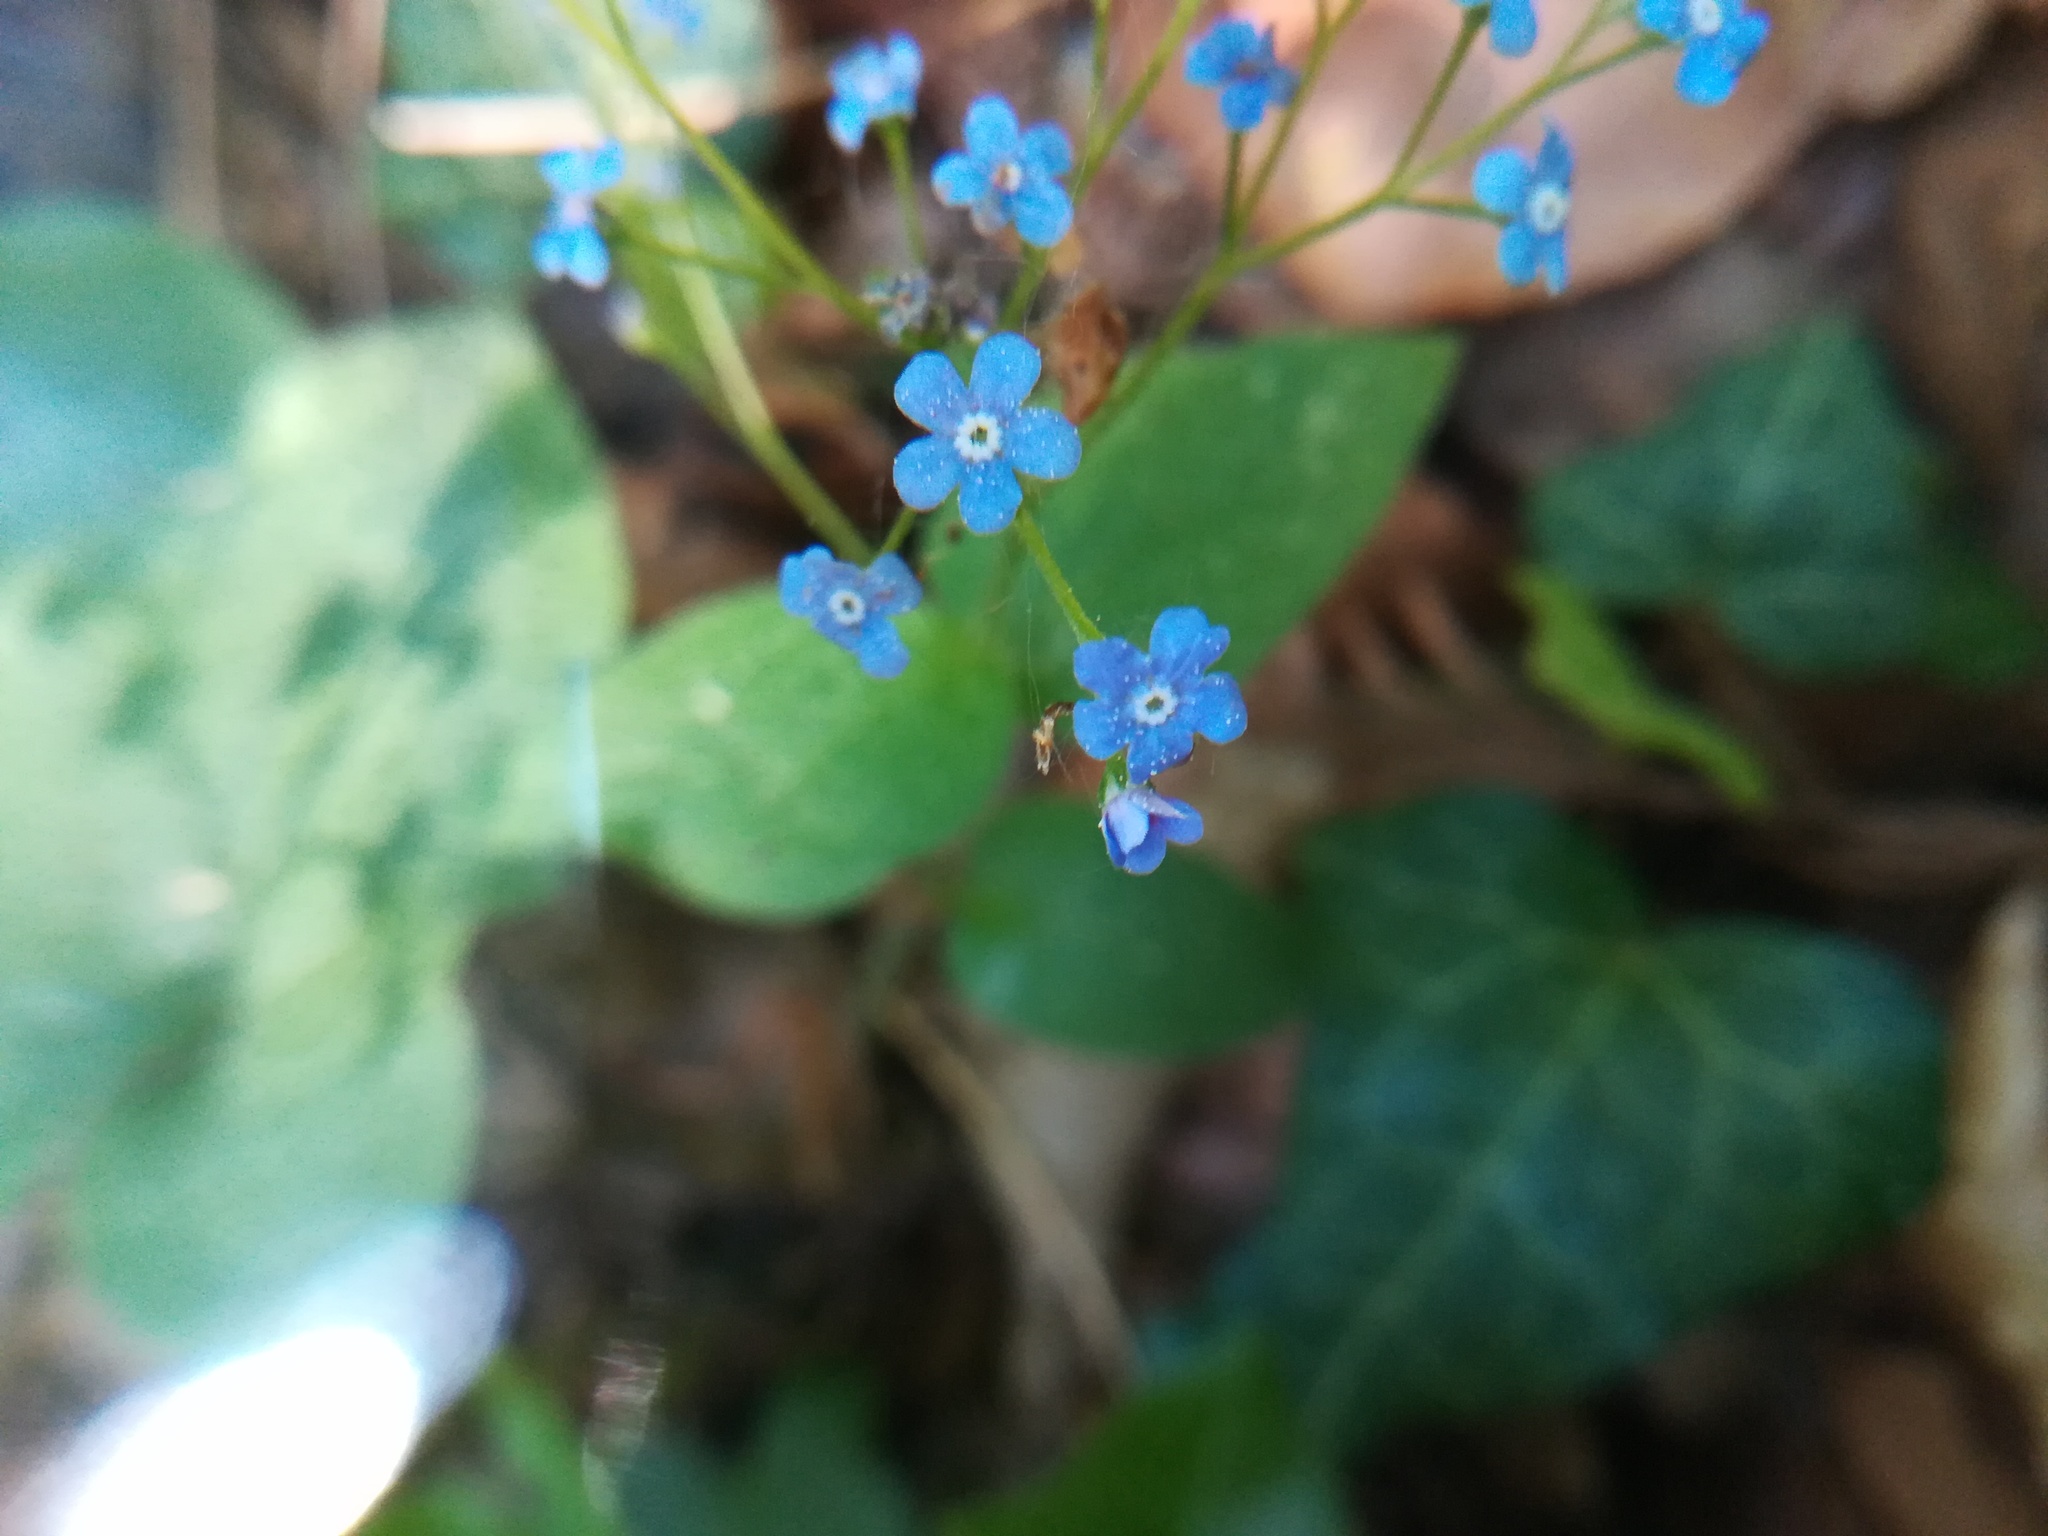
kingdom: Plantae
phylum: Tracheophyta
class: Magnoliopsida
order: Boraginales
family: Boraginaceae
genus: Myosotis
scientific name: Myosotis sylvatica
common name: Wood forget-me-not
